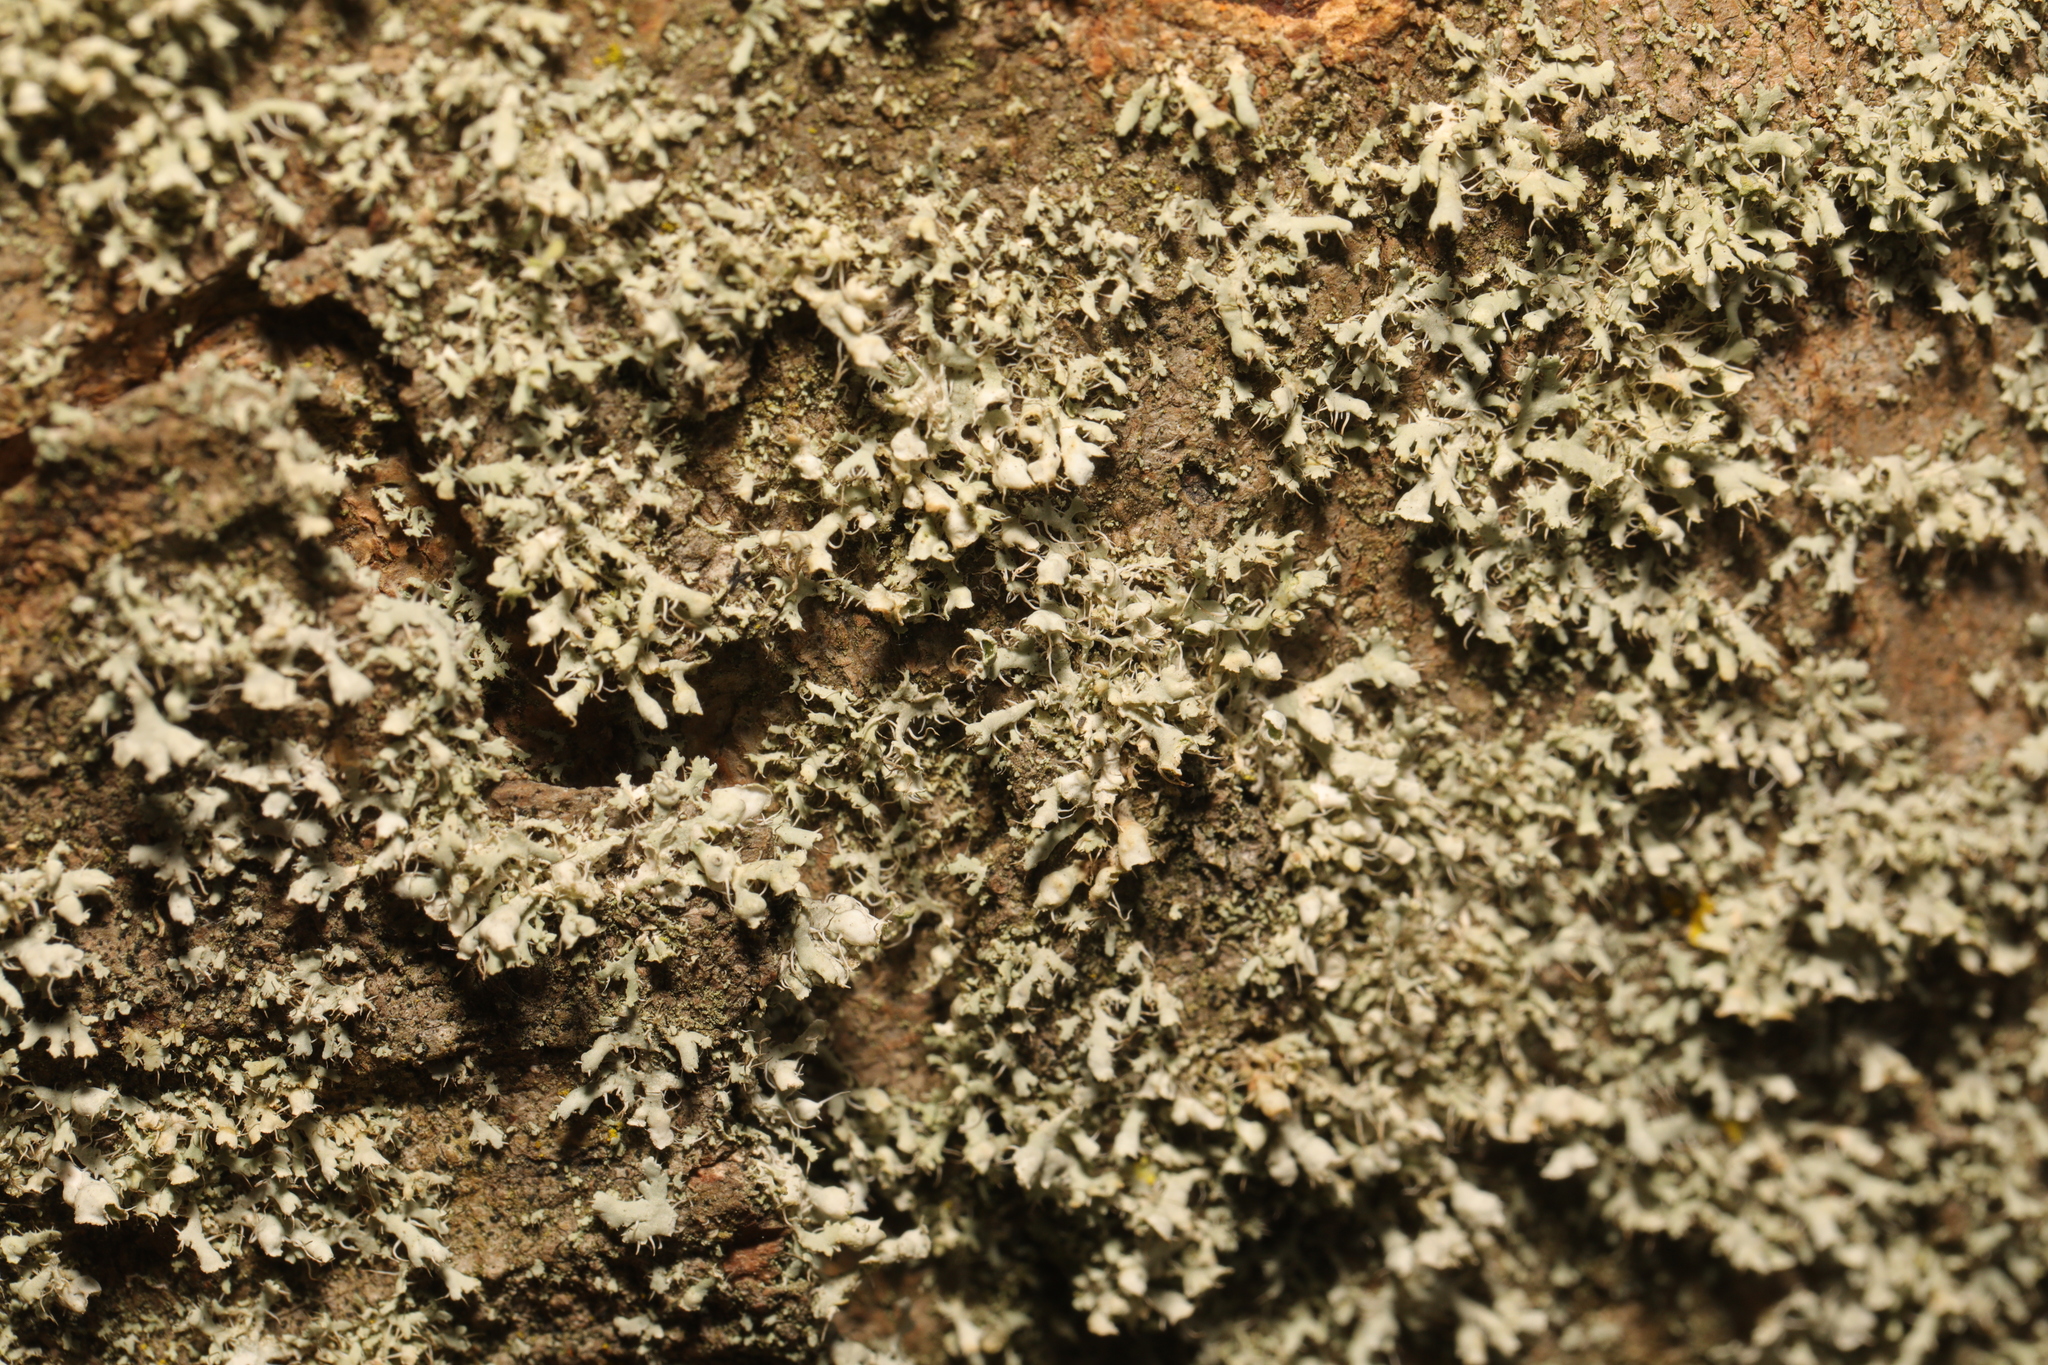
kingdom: Fungi
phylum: Ascomycota
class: Lecanoromycetes
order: Caliciales
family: Physciaceae
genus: Physcia
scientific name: Physcia adscendens
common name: Hooded rosette lichen
